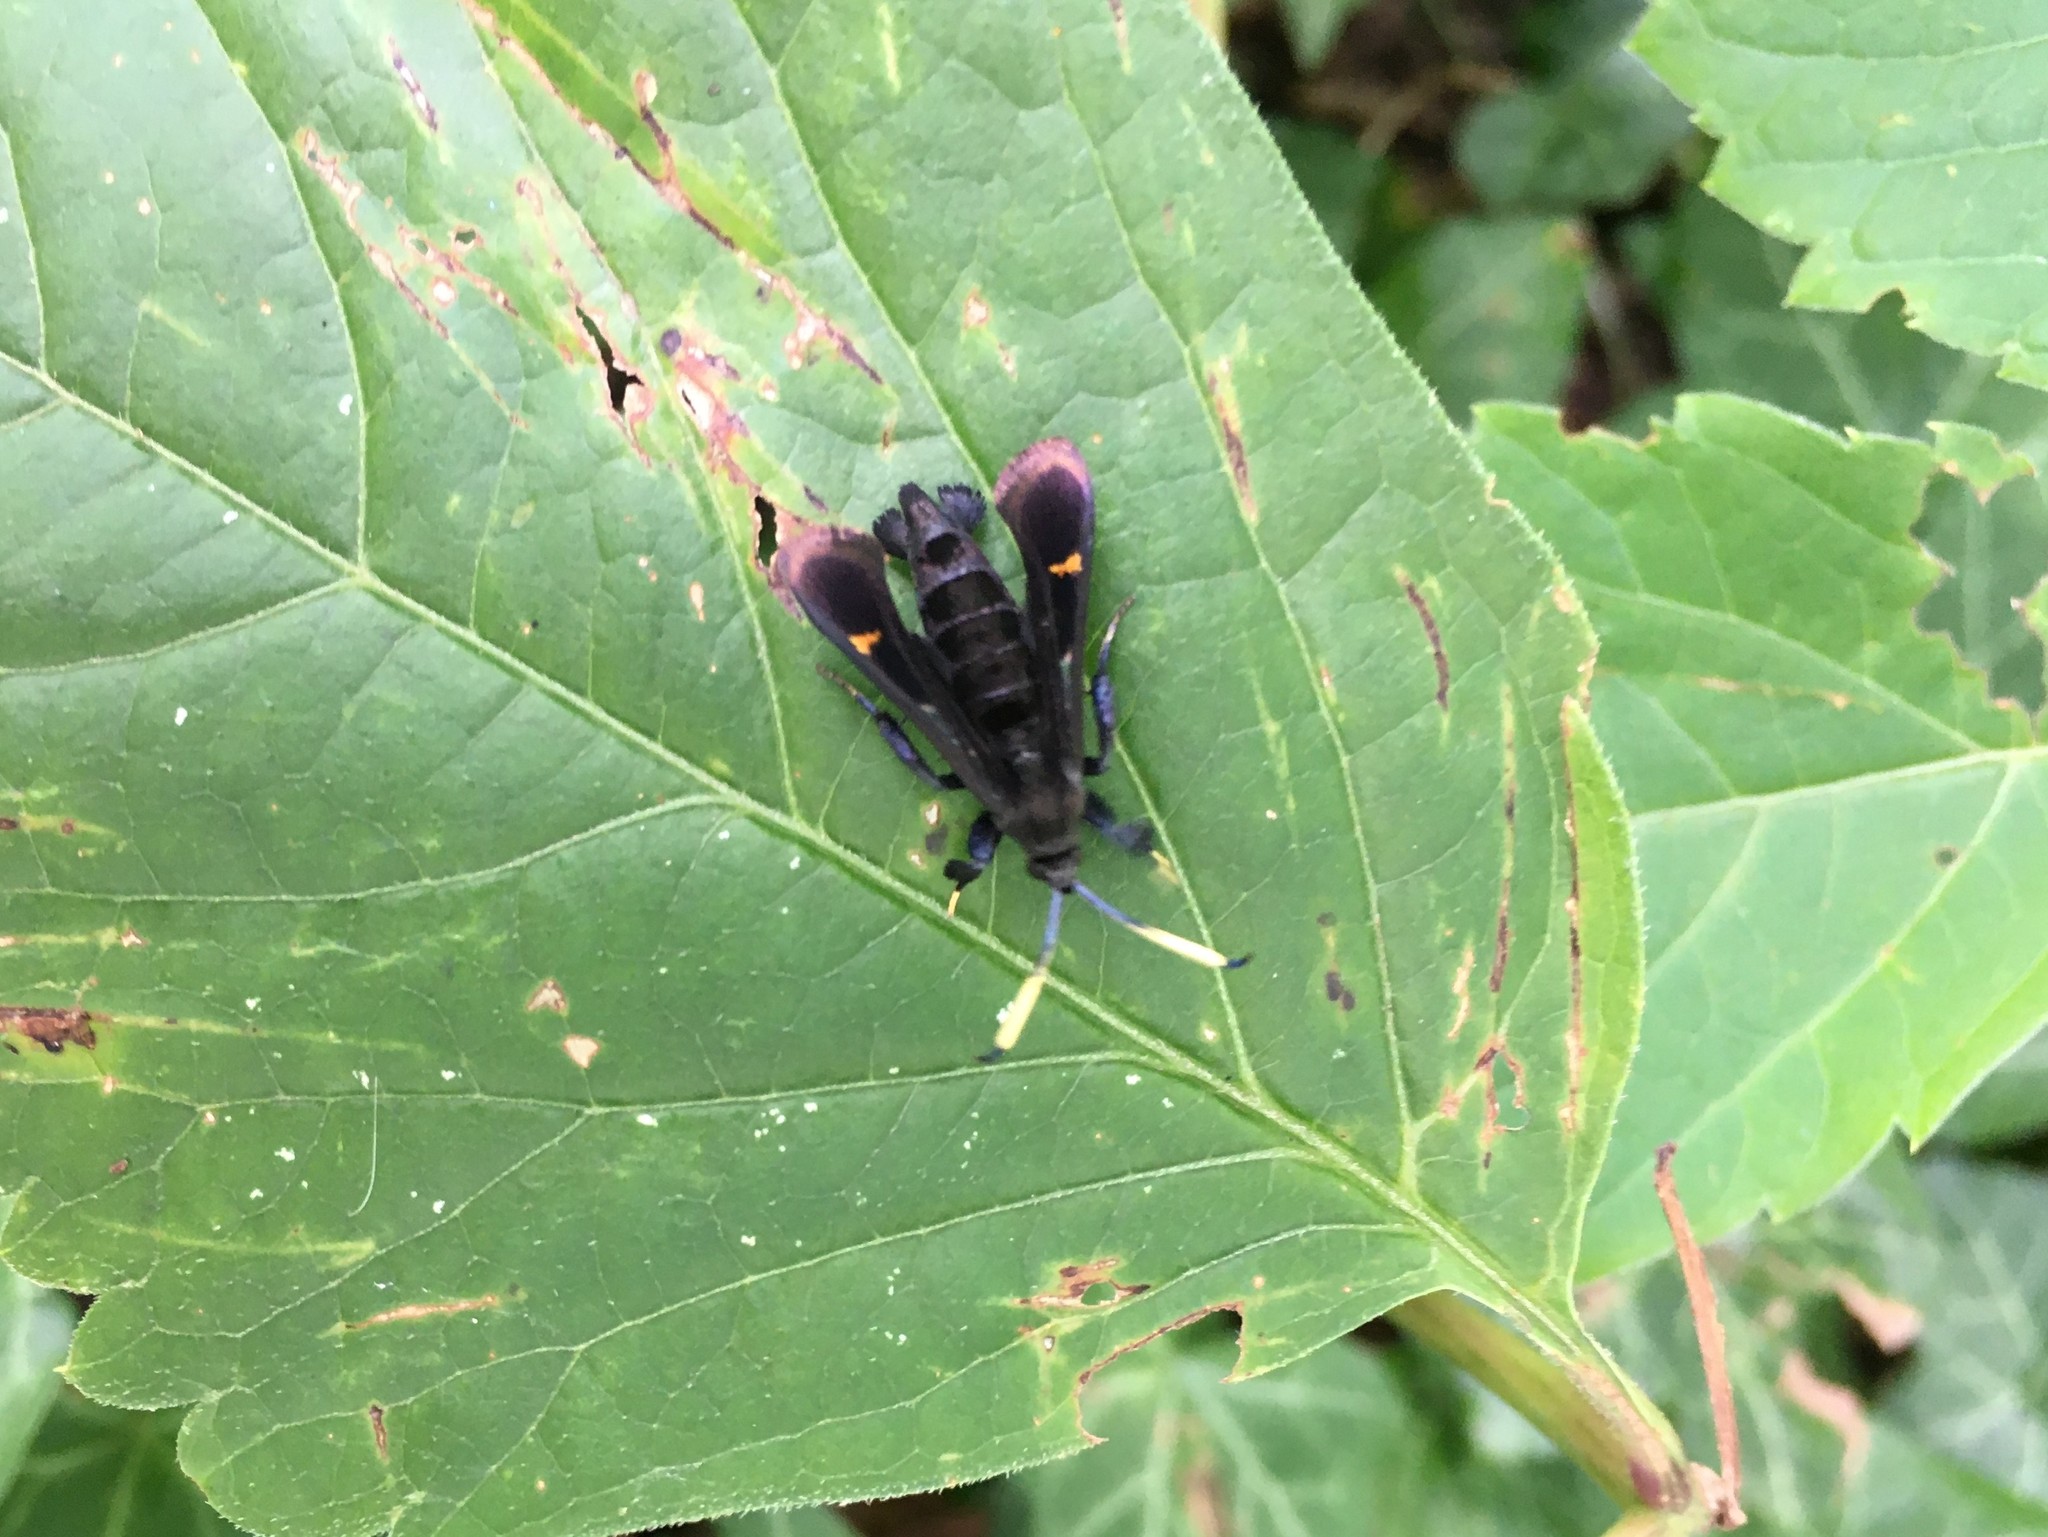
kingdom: Animalia
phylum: Arthropoda
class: Insecta
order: Lepidoptera
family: Sesiidae
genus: Albuna
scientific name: Albuna fraxini
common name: Virginia creeper clearwing
